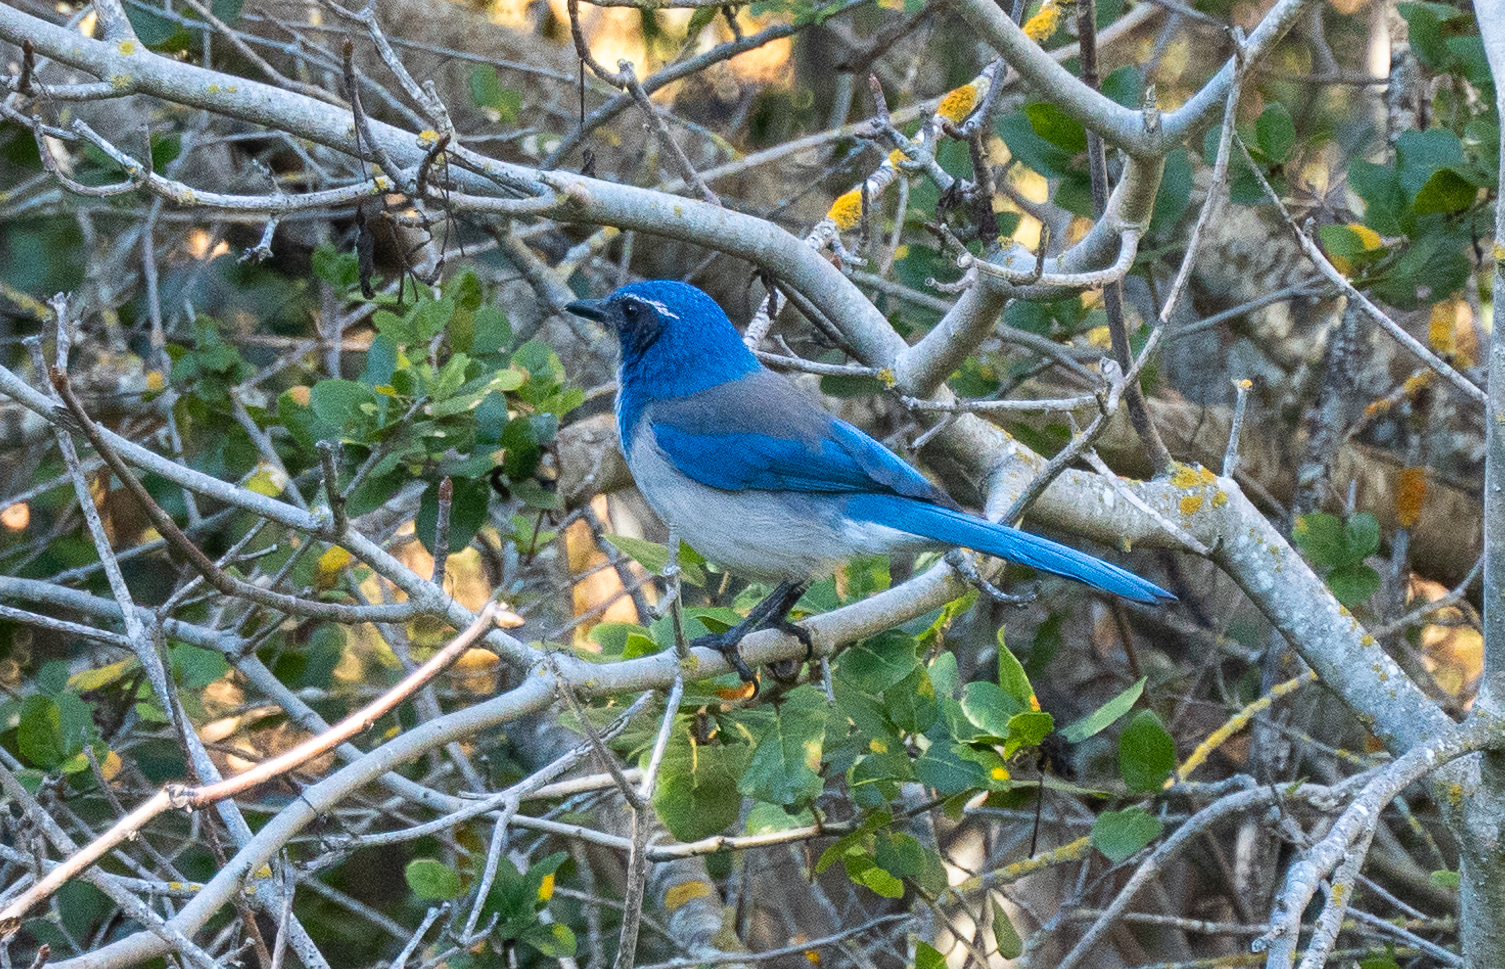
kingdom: Animalia
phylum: Chordata
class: Aves
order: Passeriformes
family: Corvidae
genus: Aphelocoma
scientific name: Aphelocoma californica
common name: California scrub-jay
